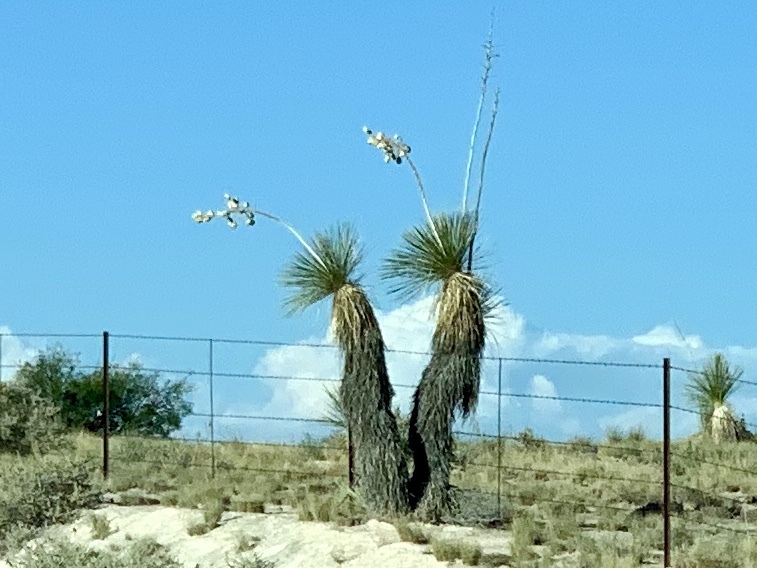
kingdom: Plantae
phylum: Tracheophyta
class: Liliopsida
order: Asparagales
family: Asparagaceae
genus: Yucca
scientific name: Yucca elata
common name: Palmella
